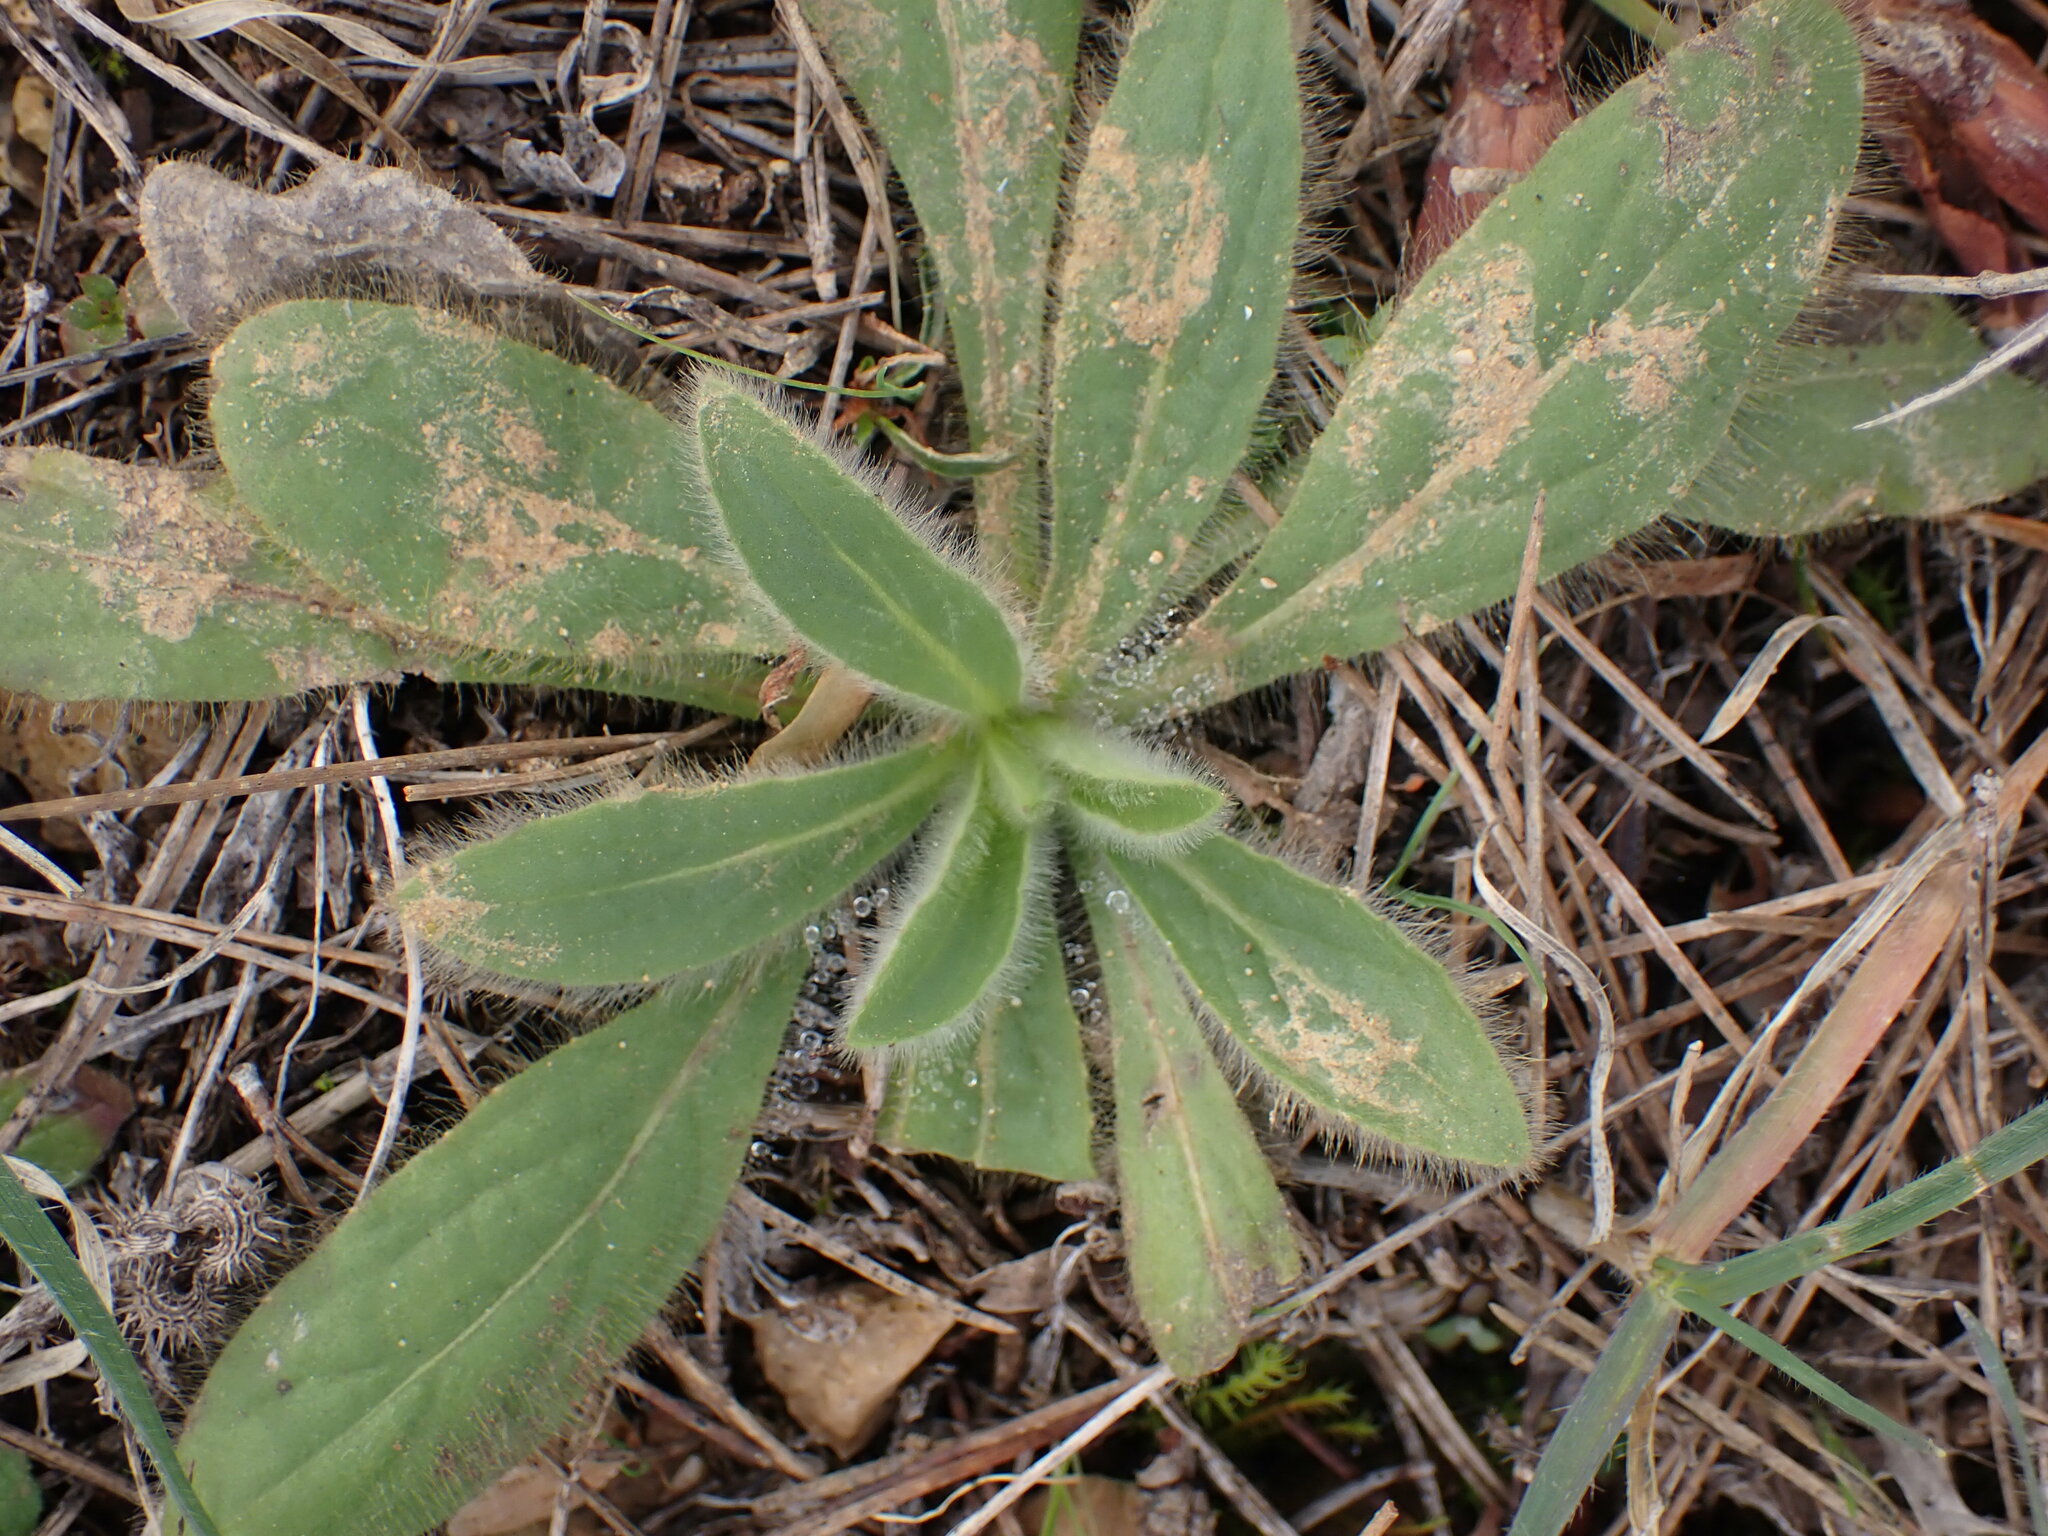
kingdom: Plantae
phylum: Tracheophyta
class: Magnoliopsida
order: Asterales
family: Asteraceae
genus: Pallenis
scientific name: Pallenis spinosa
